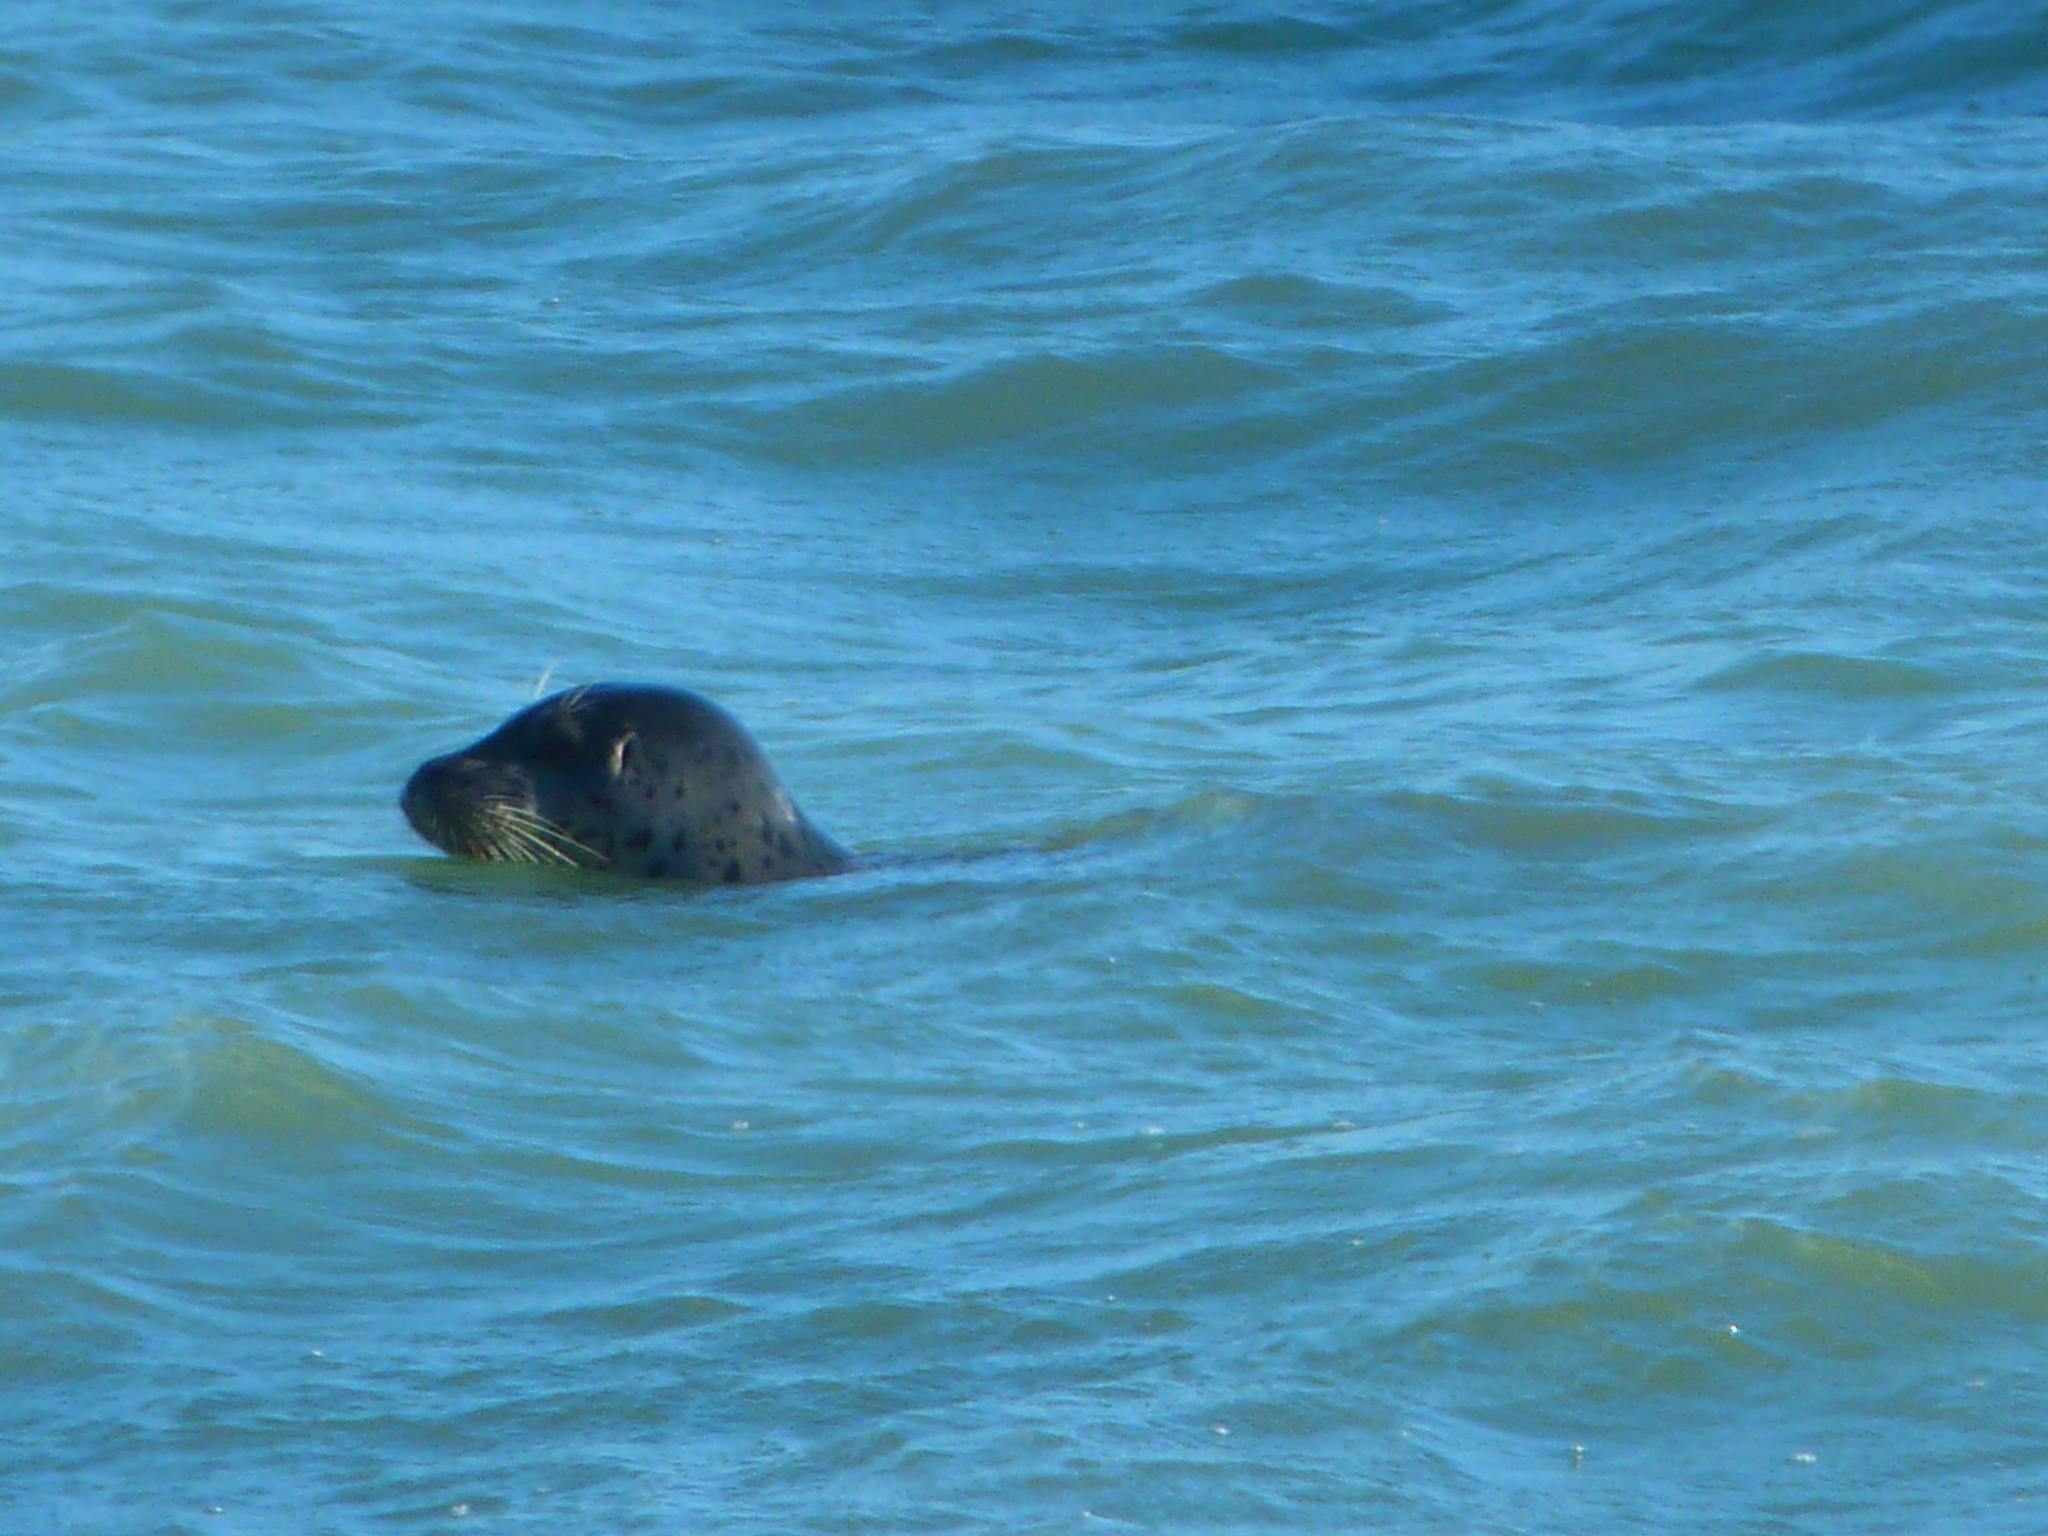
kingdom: Animalia
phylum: Chordata
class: Mammalia
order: Carnivora
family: Phocidae
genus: Phoca
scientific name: Phoca vitulina
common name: Harbor seal
